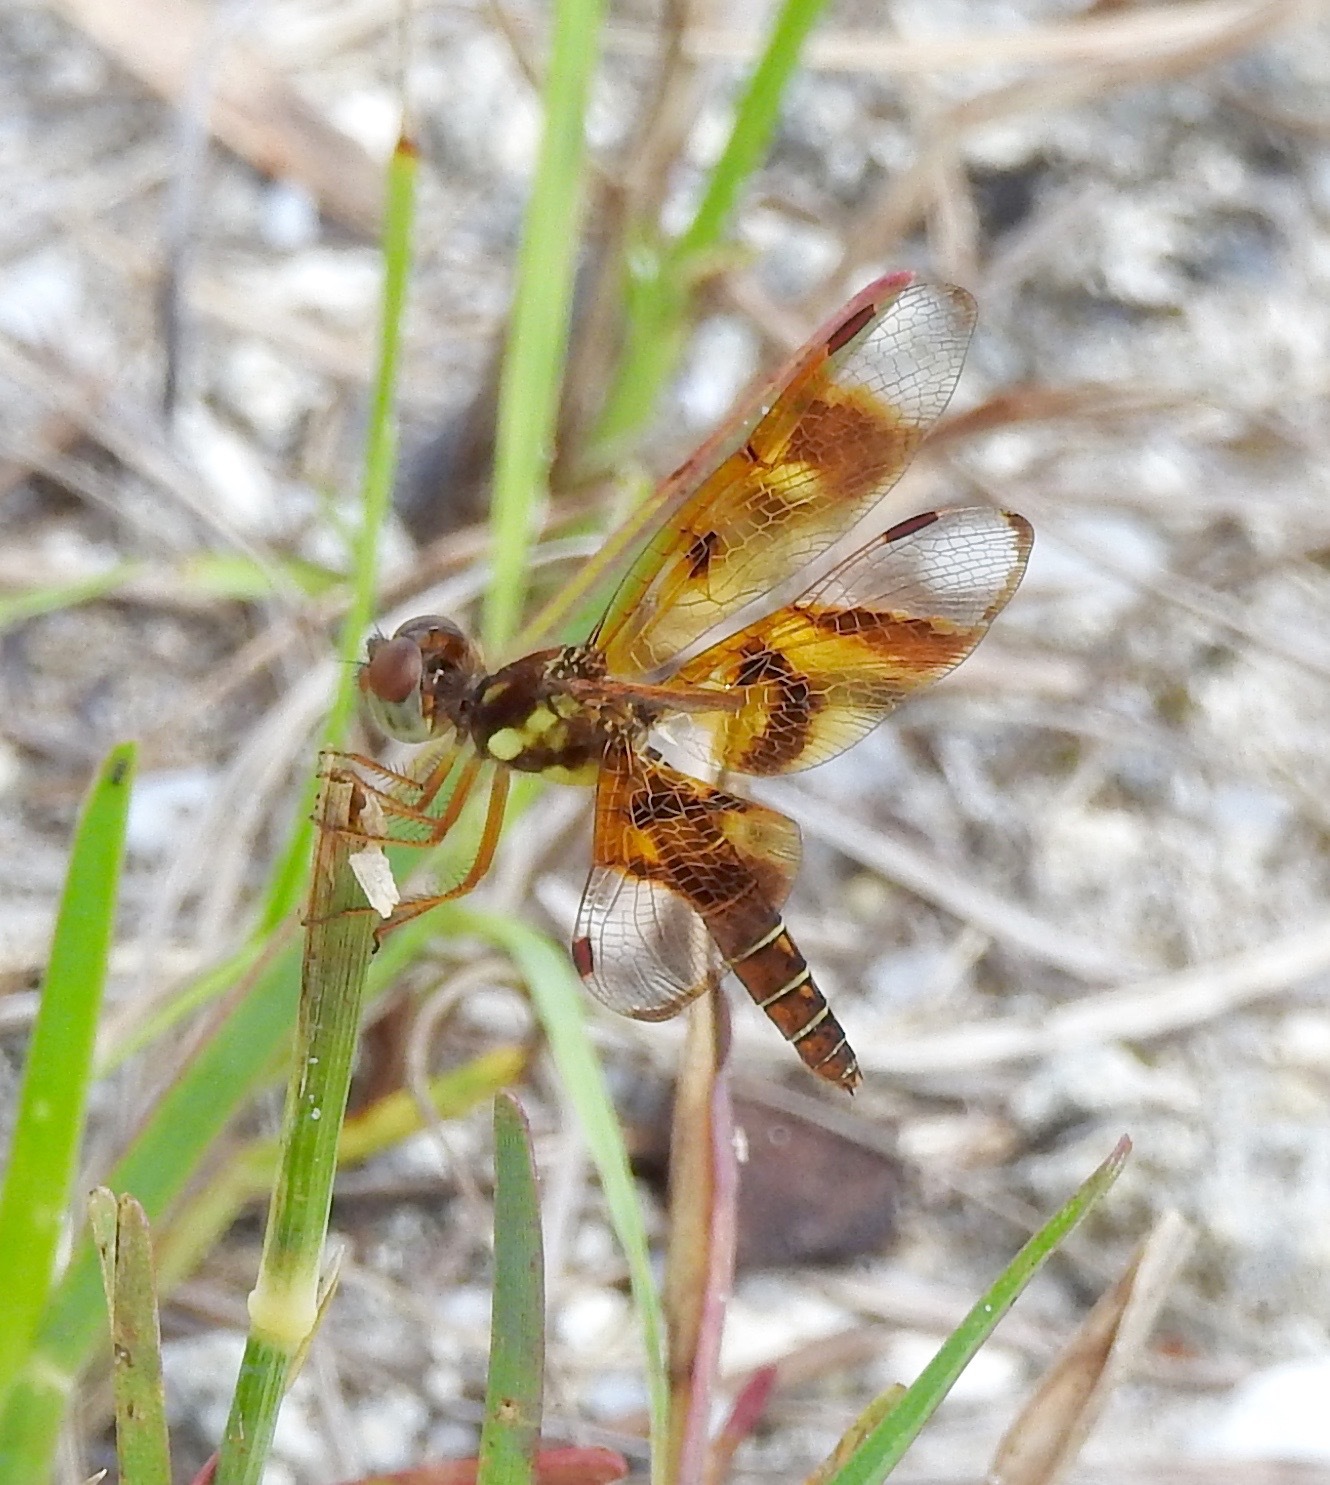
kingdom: Animalia
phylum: Arthropoda
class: Insecta
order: Odonata
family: Libellulidae
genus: Perithemis
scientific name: Perithemis tenera
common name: Eastern amberwing
